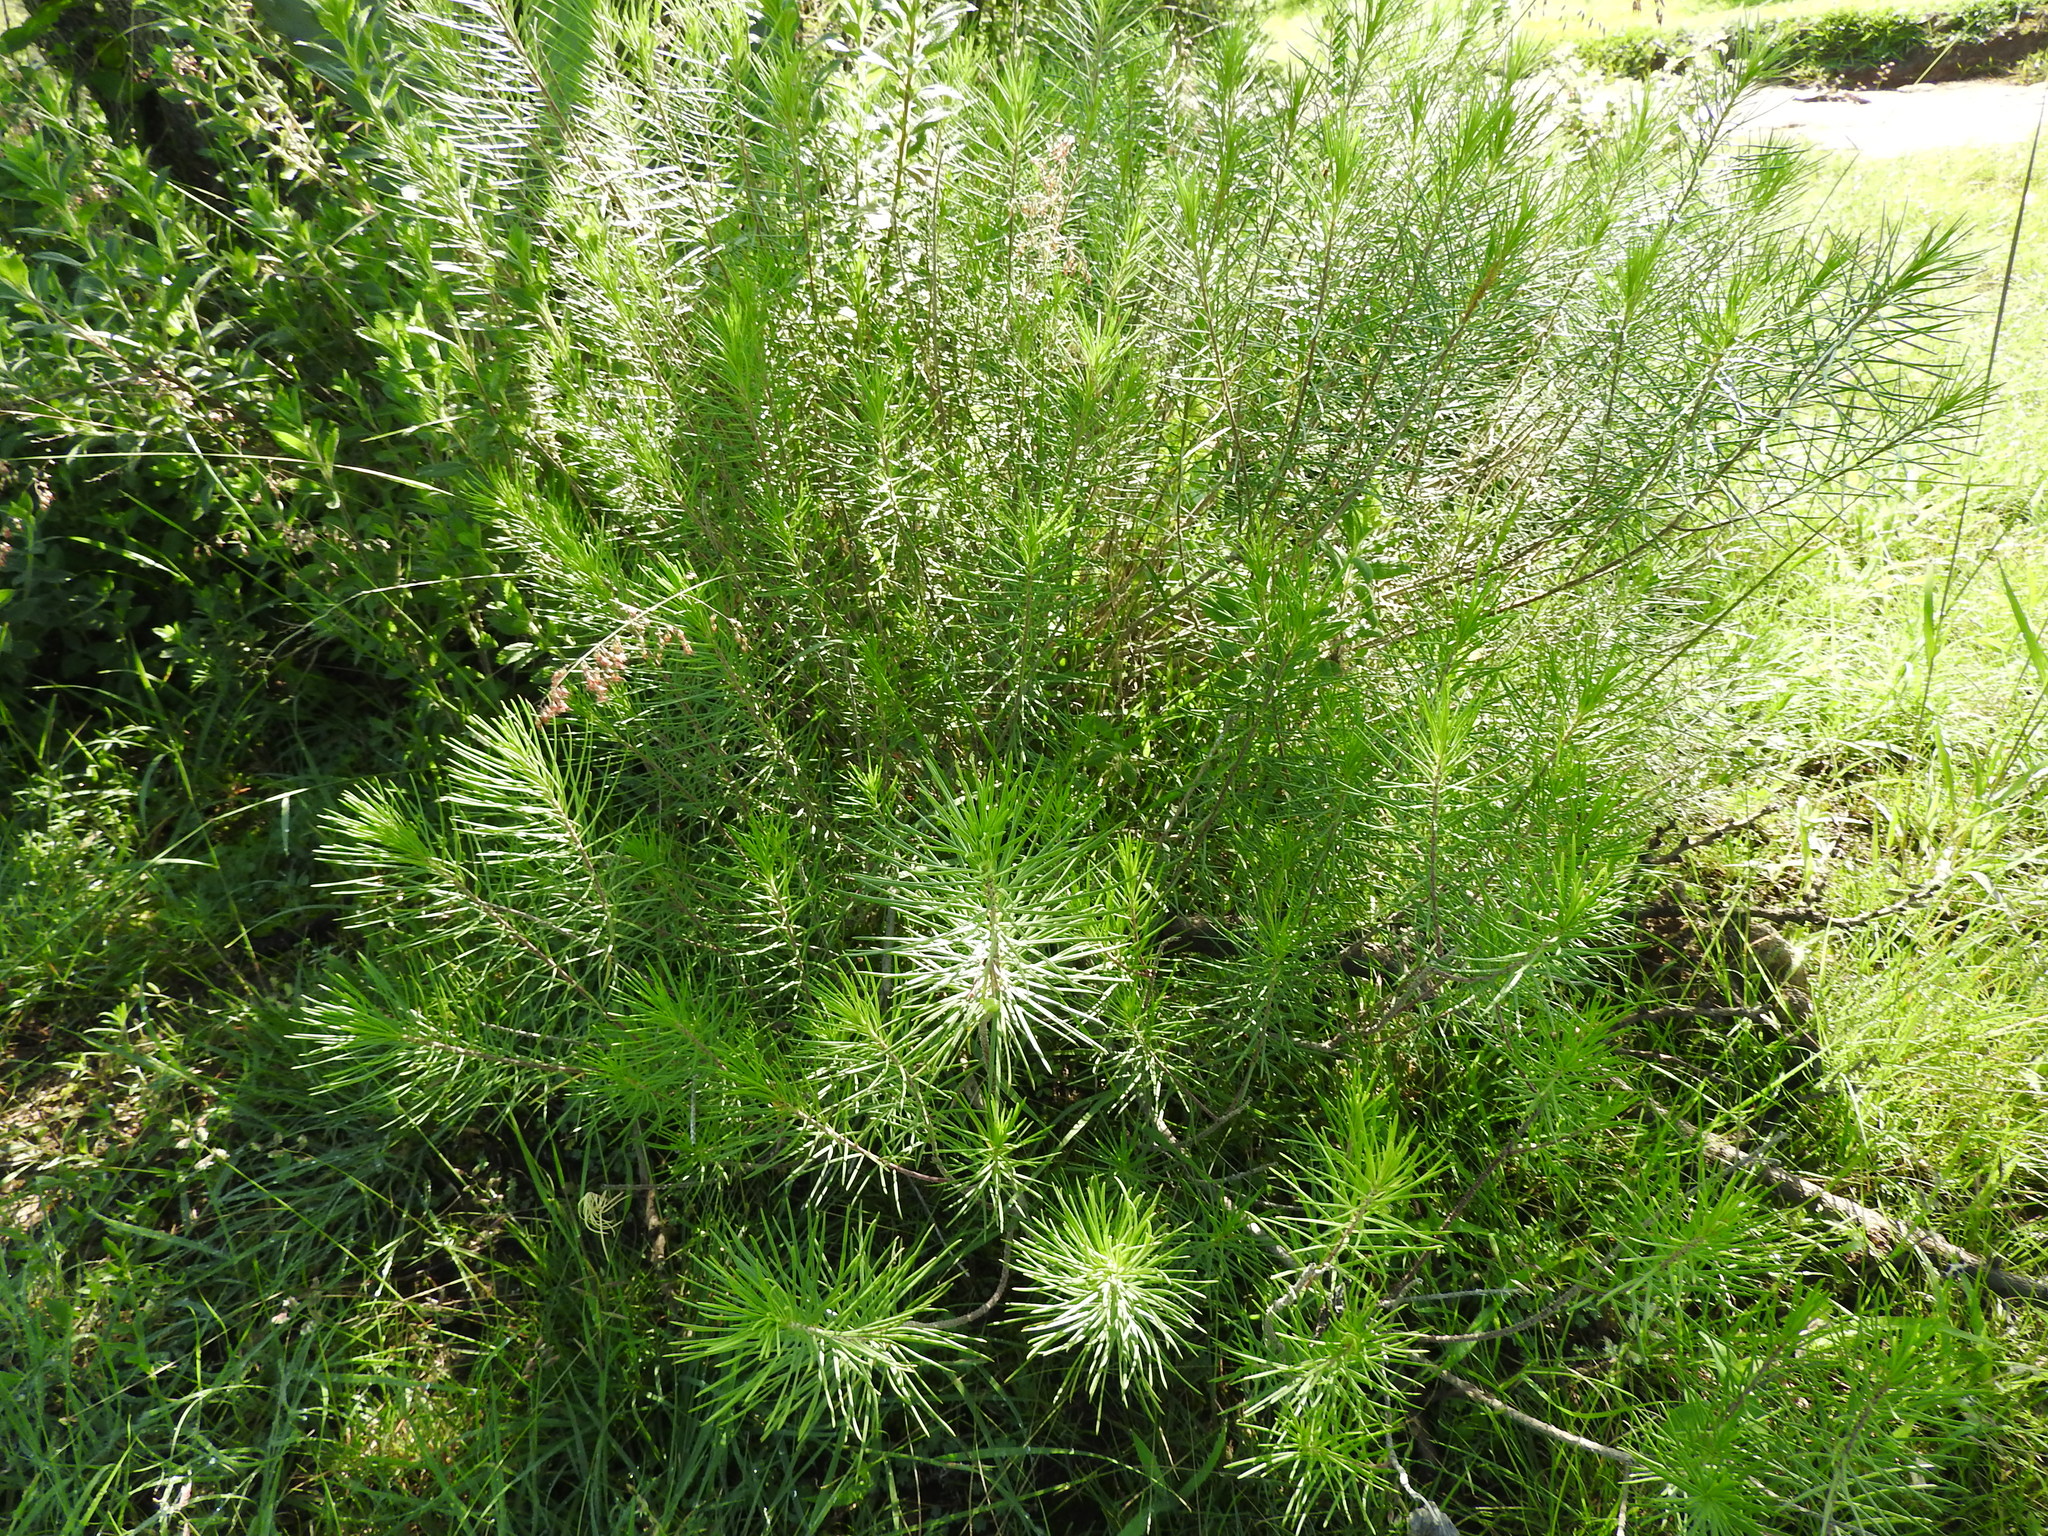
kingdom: Plantae
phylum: Tracheophyta
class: Magnoliopsida
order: Gentianales
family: Apocynaceae
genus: Asclepias
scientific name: Asclepias linaria
